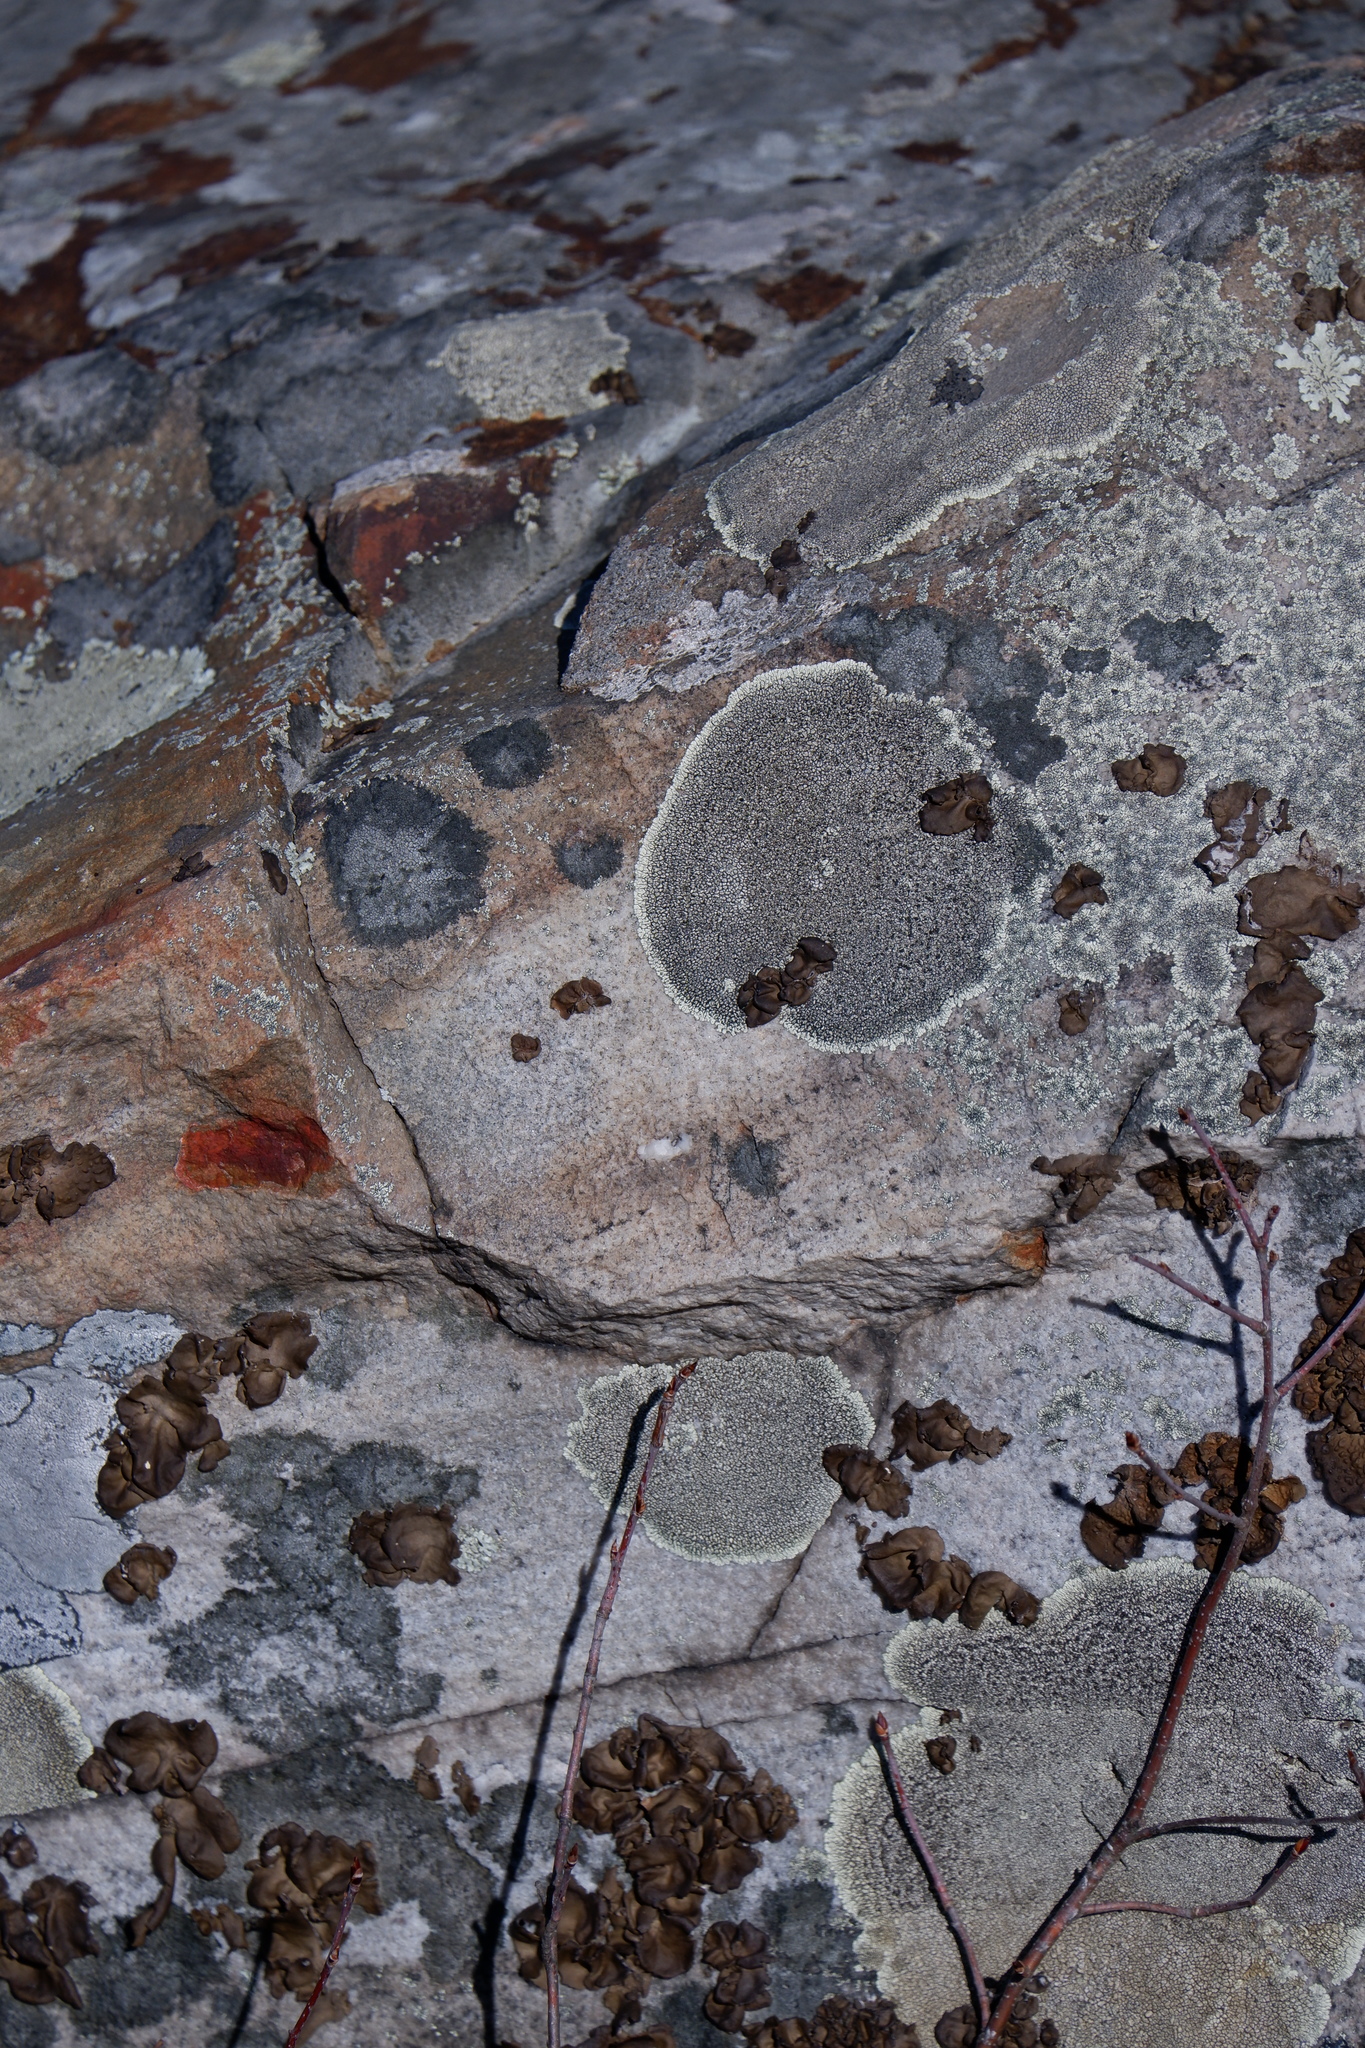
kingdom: Fungi
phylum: Ascomycota
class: Lecanoromycetes
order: Caliciales
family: Caliciaceae
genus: Dimelaena
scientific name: Dimelaena oreina
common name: Golden moonglow lichen
